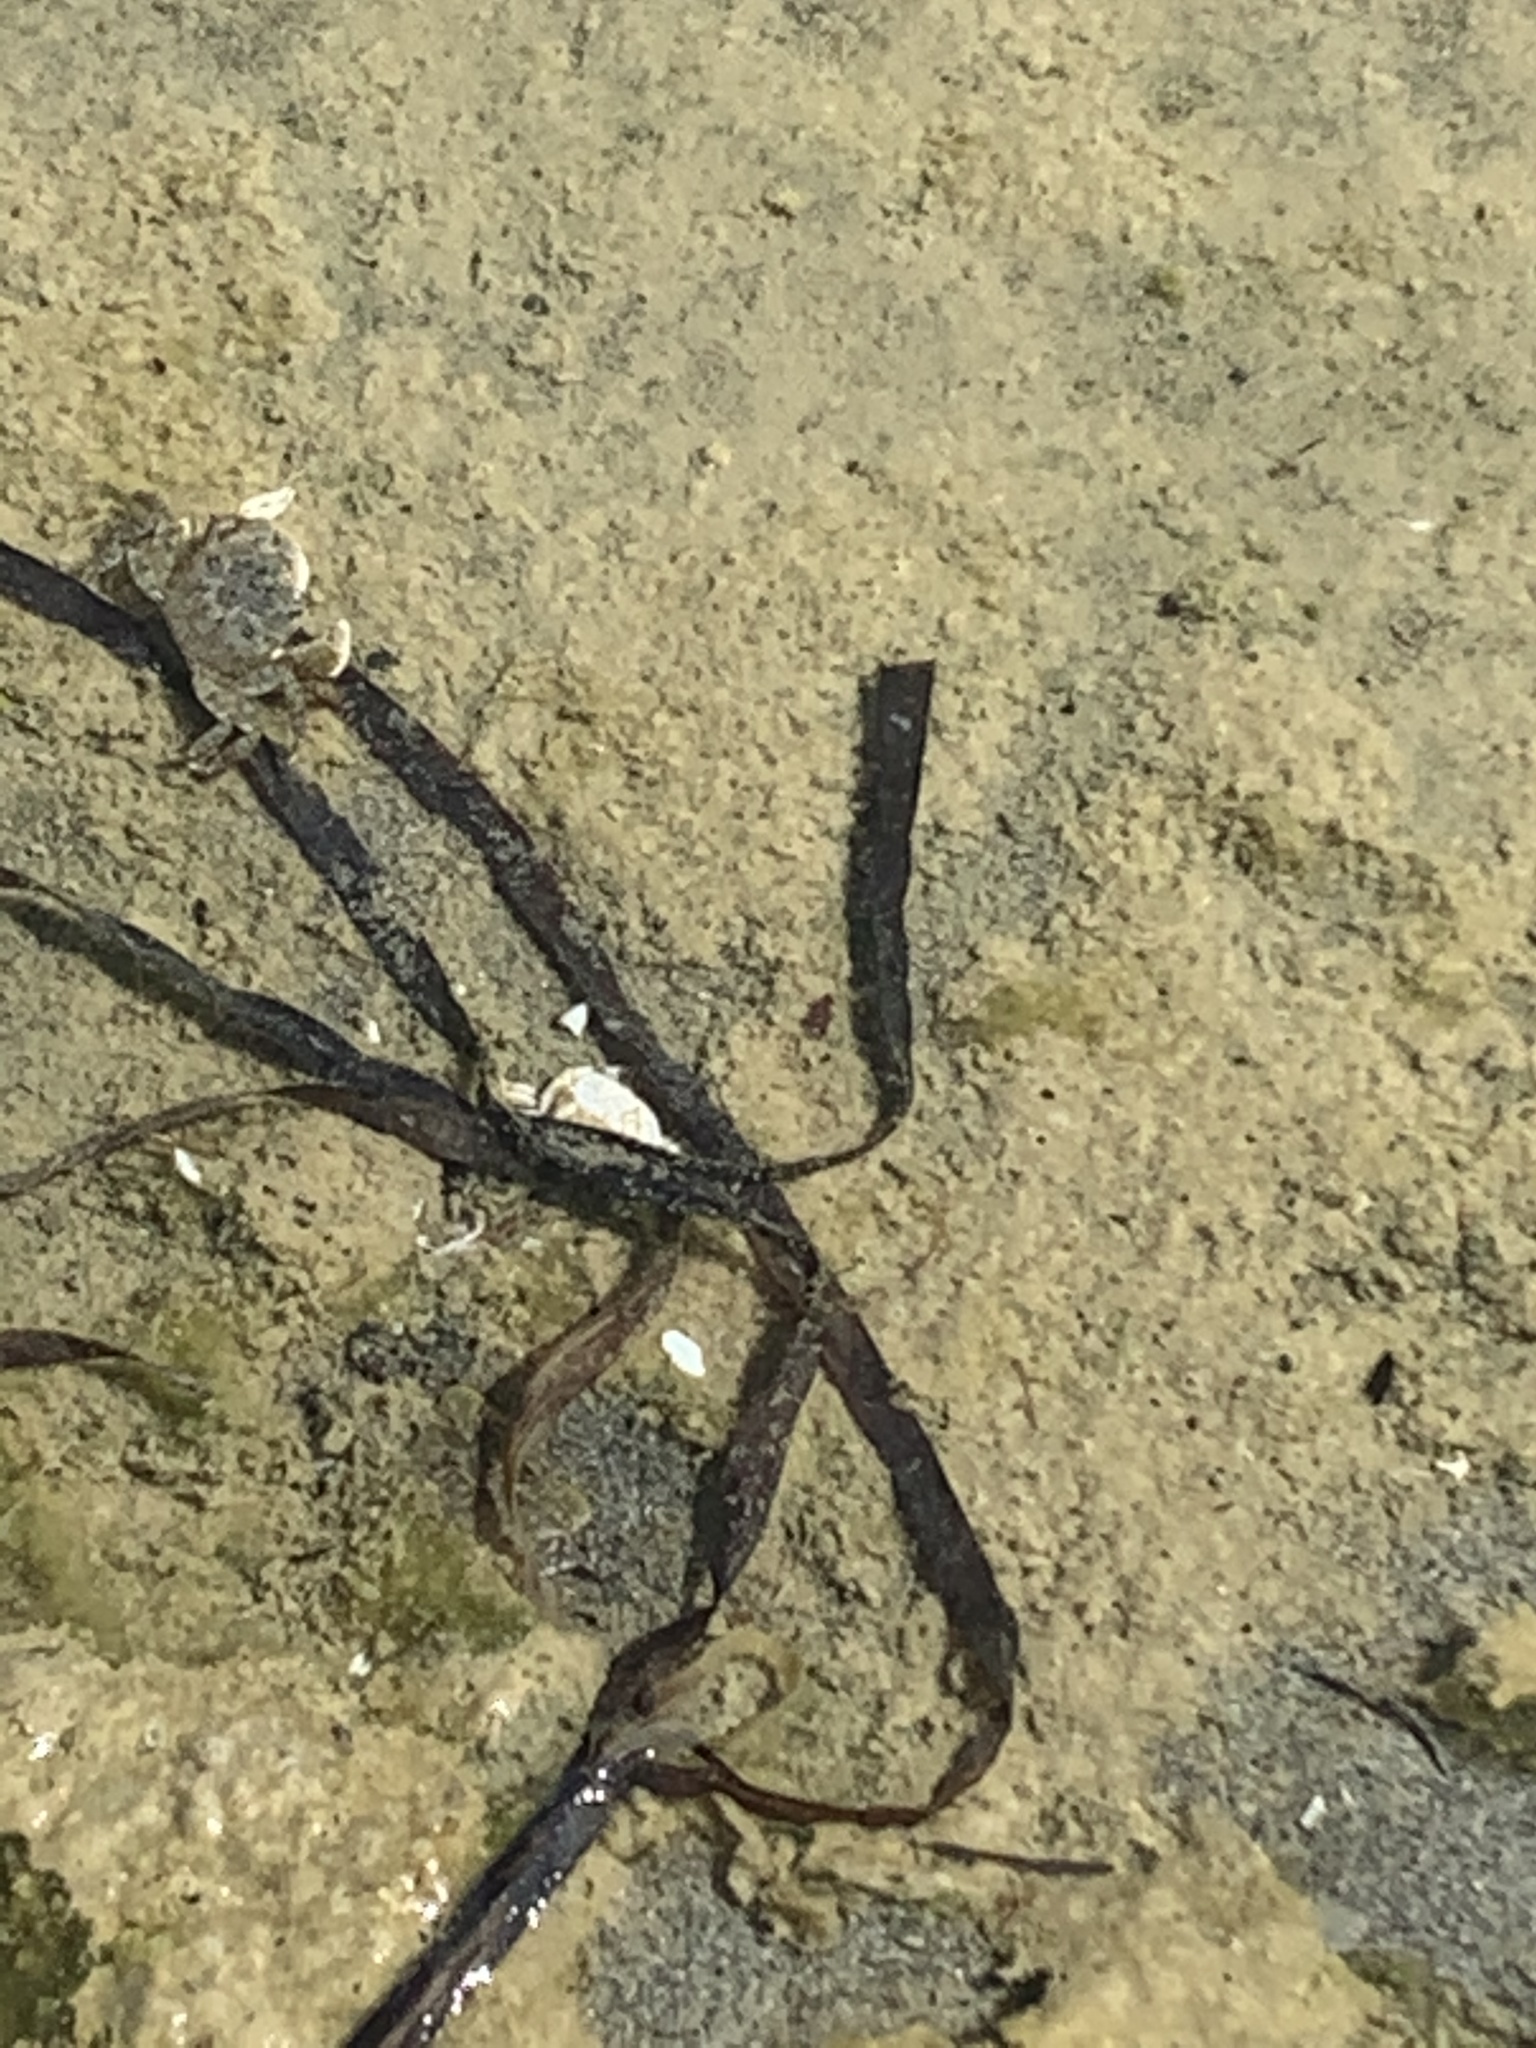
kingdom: Animalia
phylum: Arthropoda
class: Malacostraca
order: Decapoda
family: Varunidae
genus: Hemigrapsus
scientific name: Hemigrapsus oregonensis
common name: Yellow shore crab
